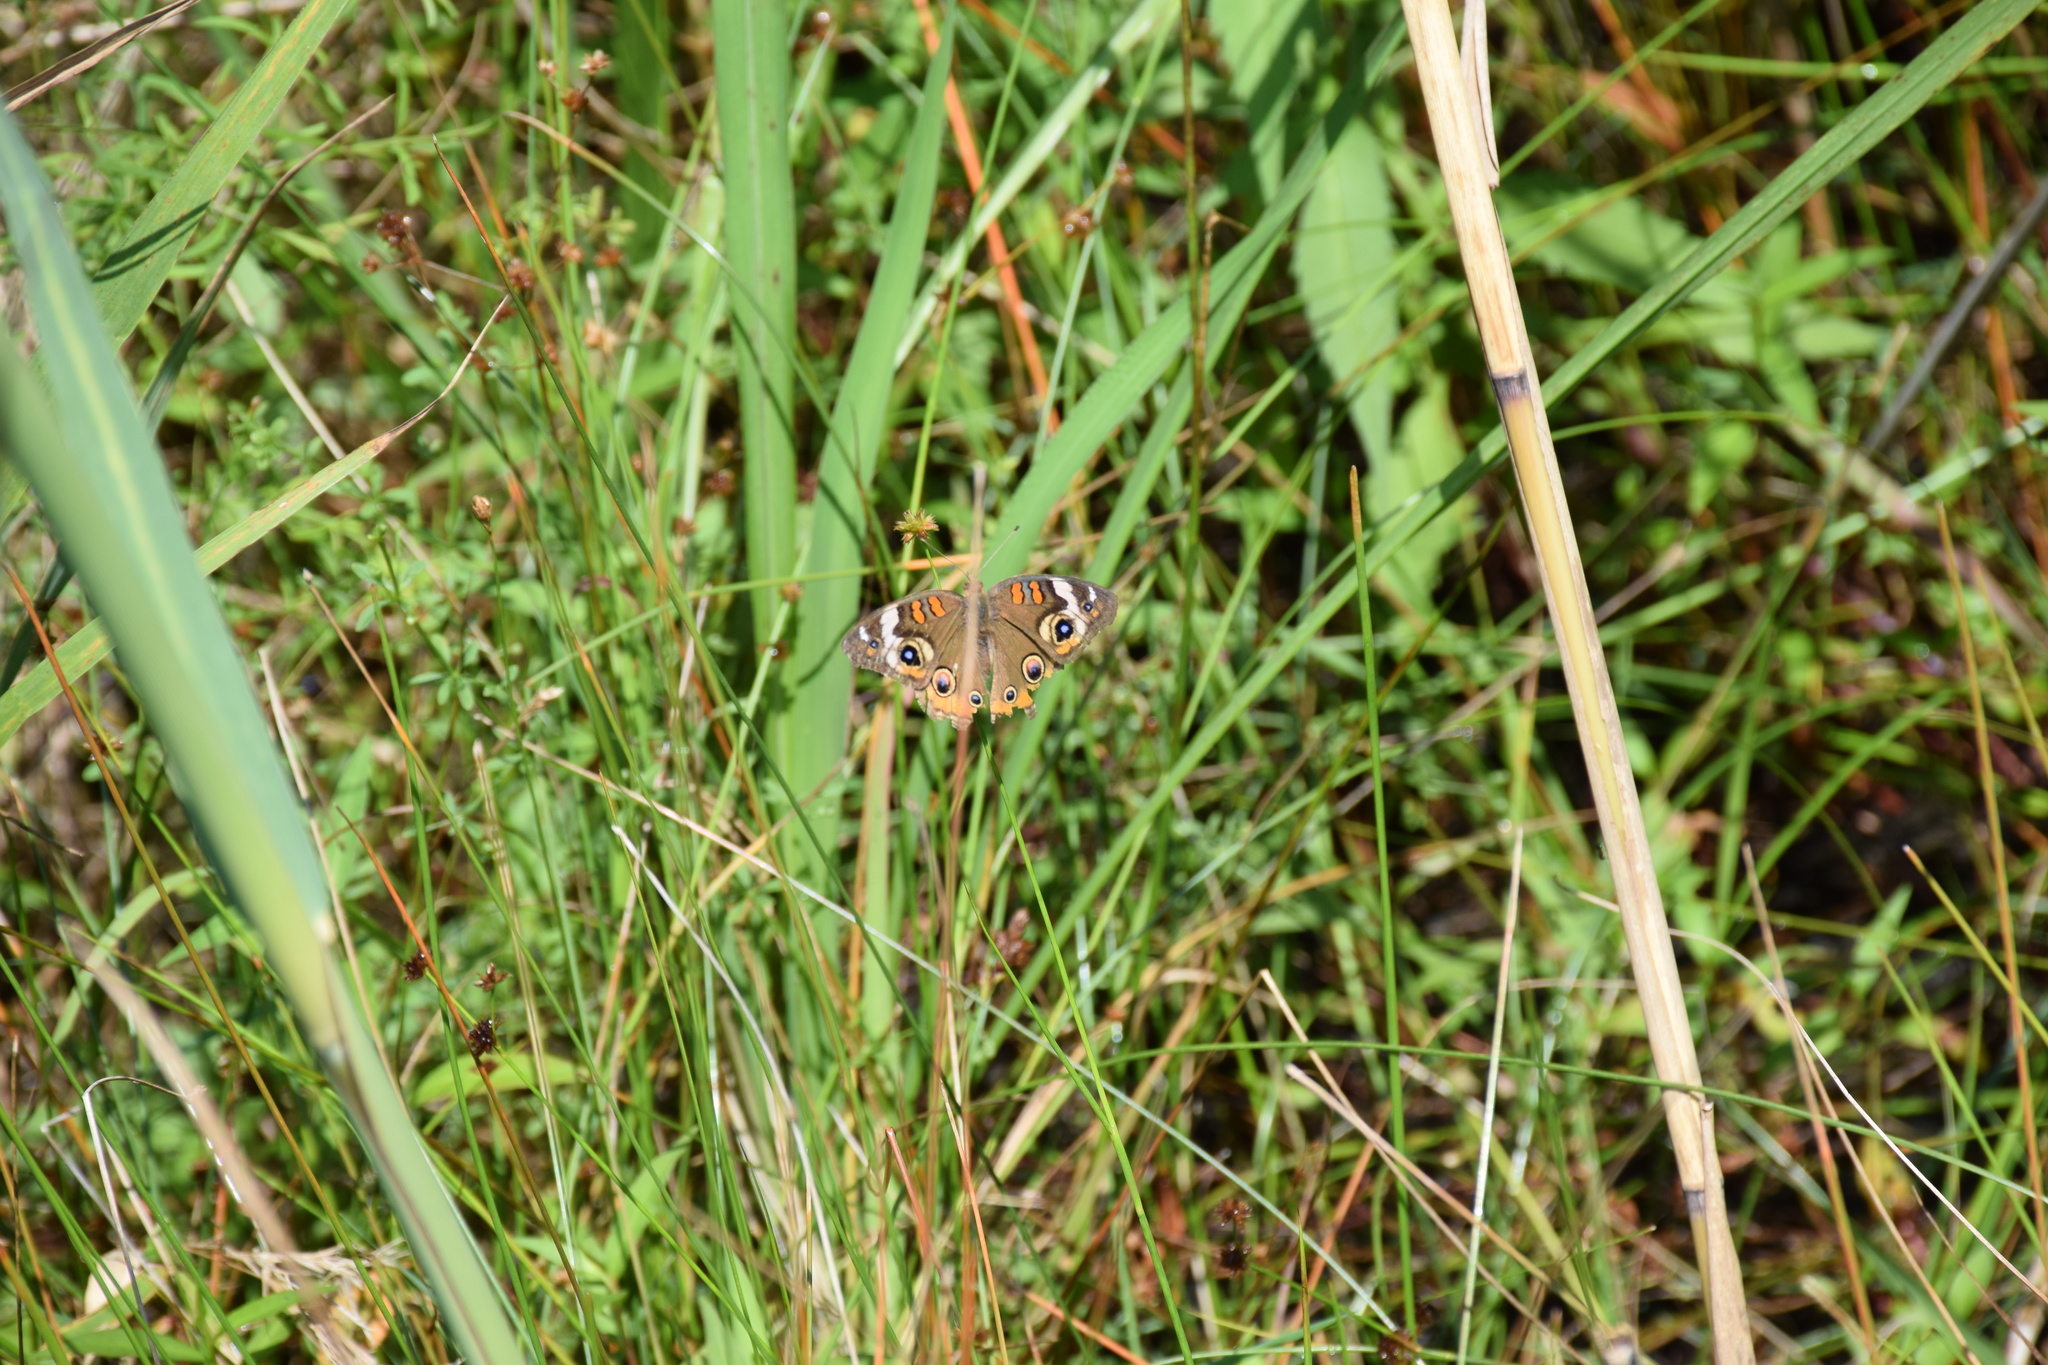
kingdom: Animalia
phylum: Arthropoda
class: Insecta
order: Lepidoptera
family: Nymphalidae
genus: Junonia
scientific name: Junonia coenia
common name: Common buckeye
